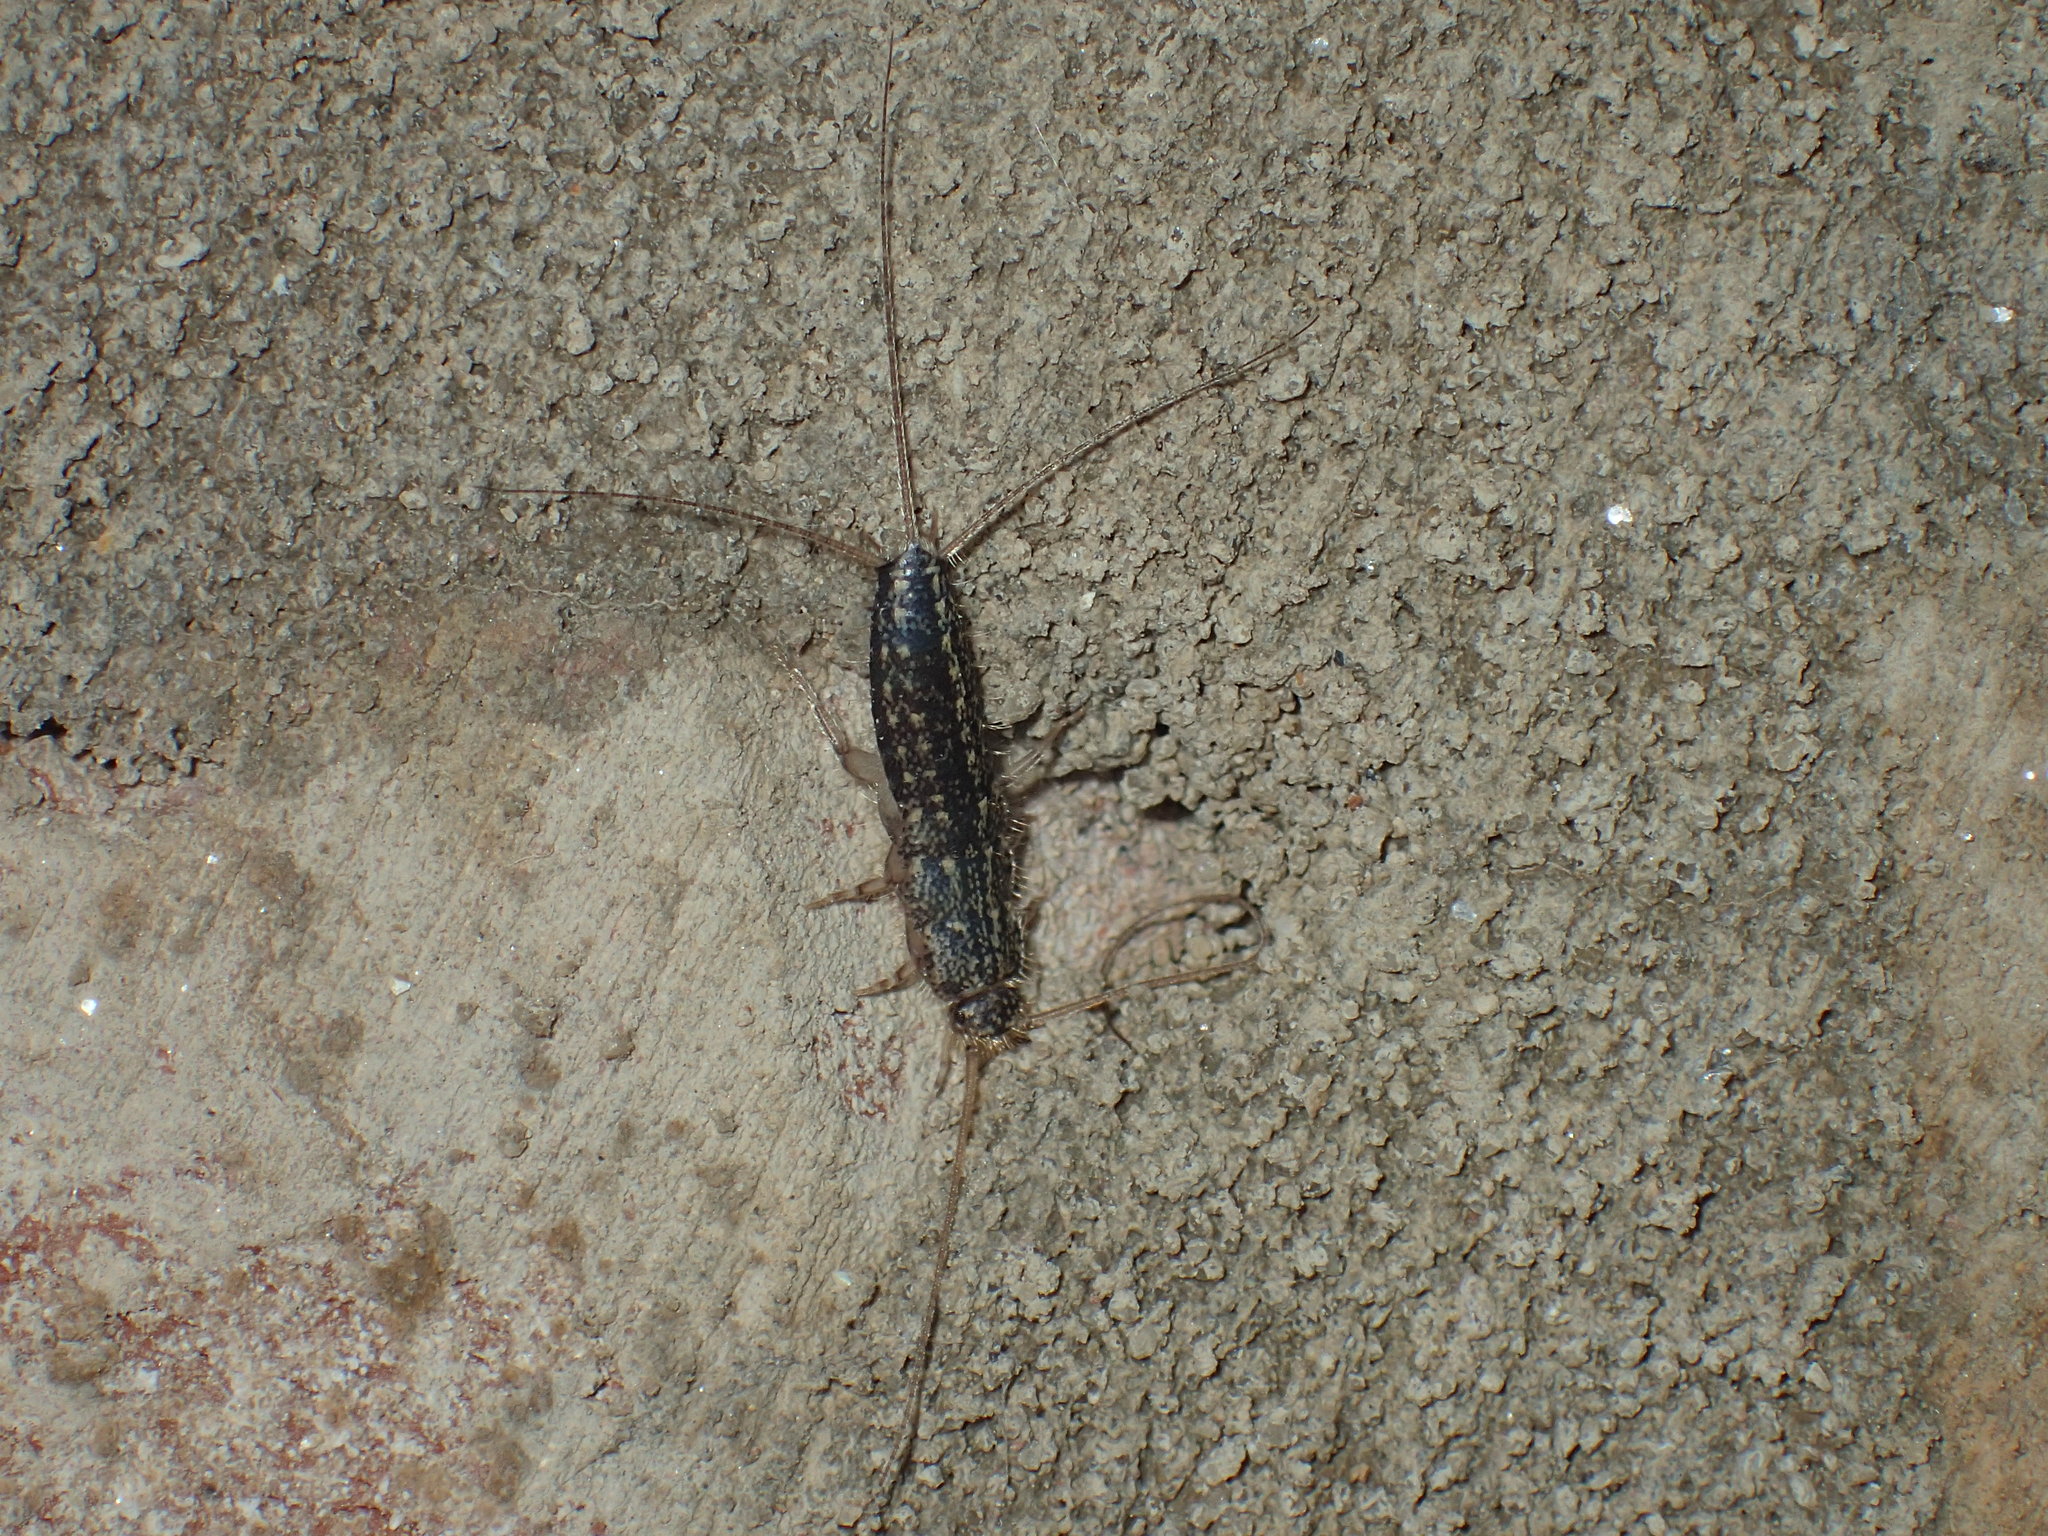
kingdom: Animalia
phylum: Arthropoda
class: Insecta
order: Zygentoma
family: Lepismatidae
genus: Ctenolepisma
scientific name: Ctenolepisma lineata
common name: Four-lined silverfish
